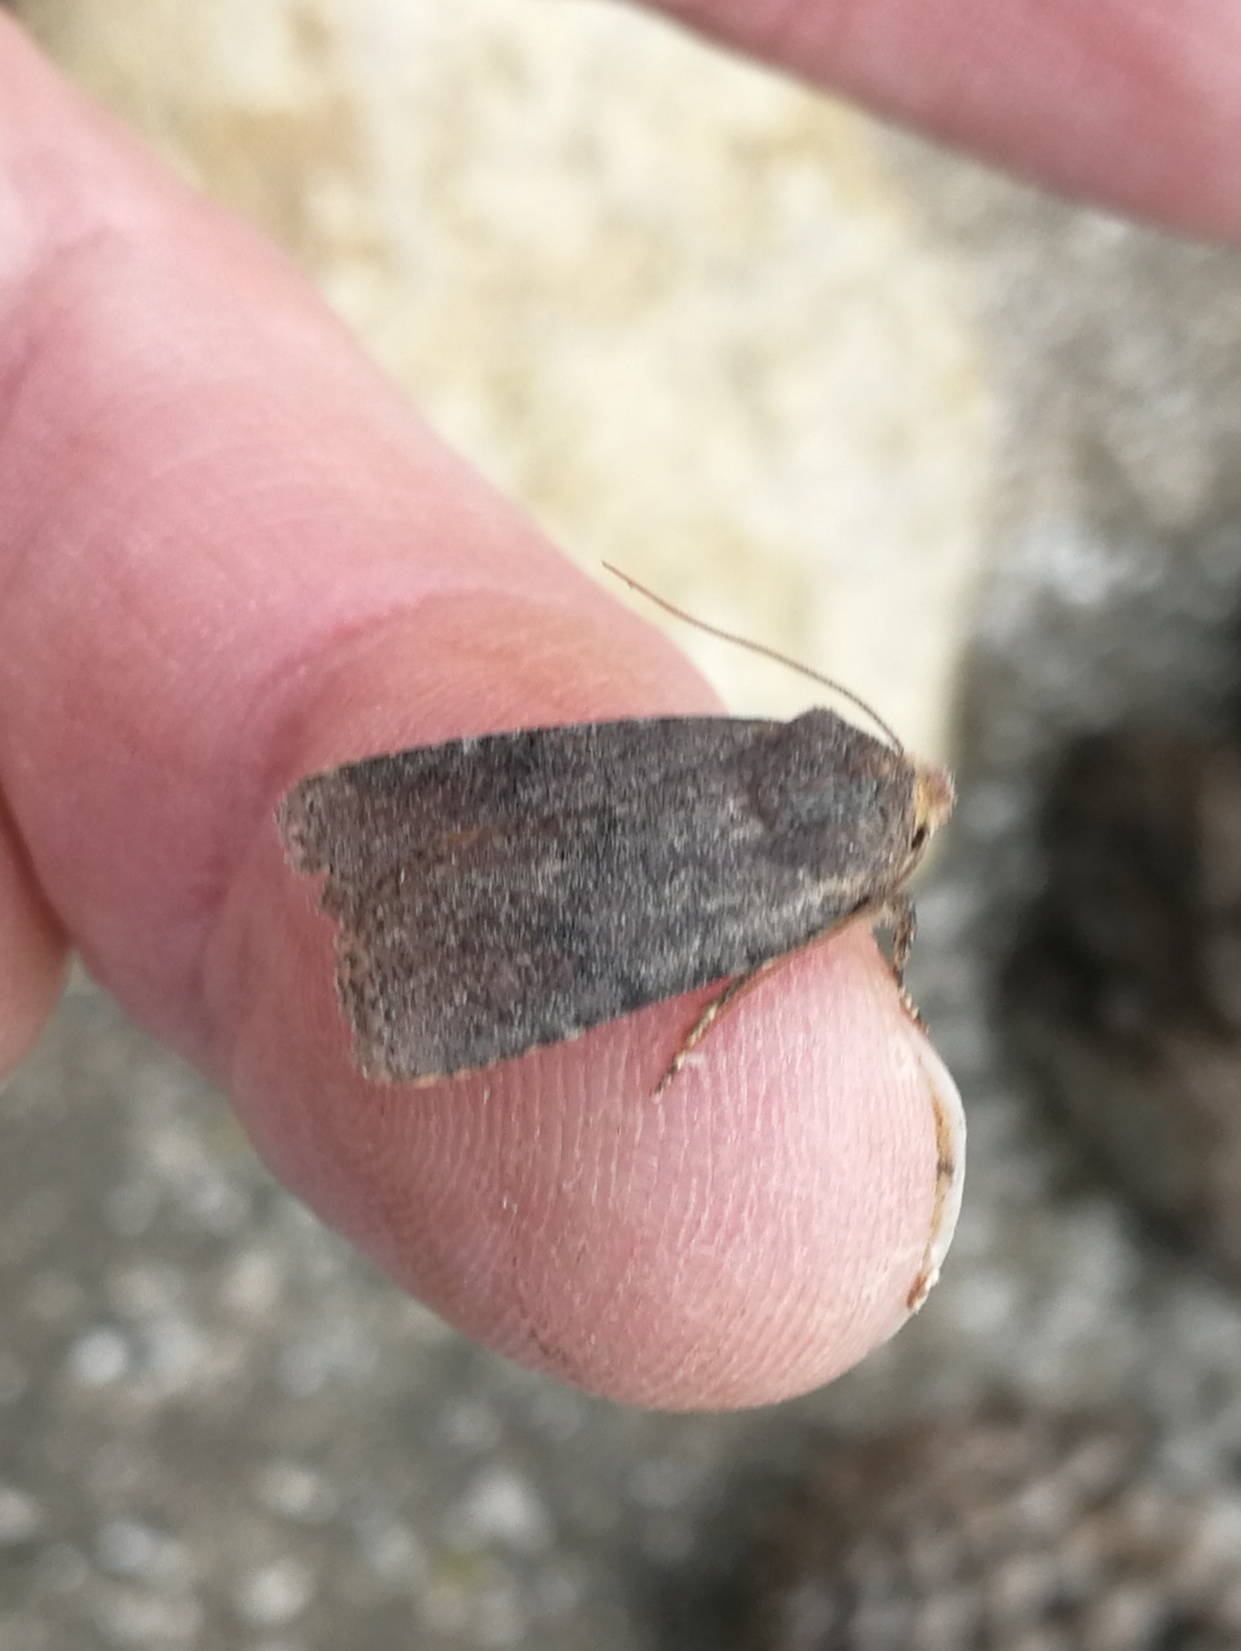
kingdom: Animalia
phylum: Arthropoda
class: Insecta
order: Lepidoptera
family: Noctuidae
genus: Conistra
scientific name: Conistra staudingeri
